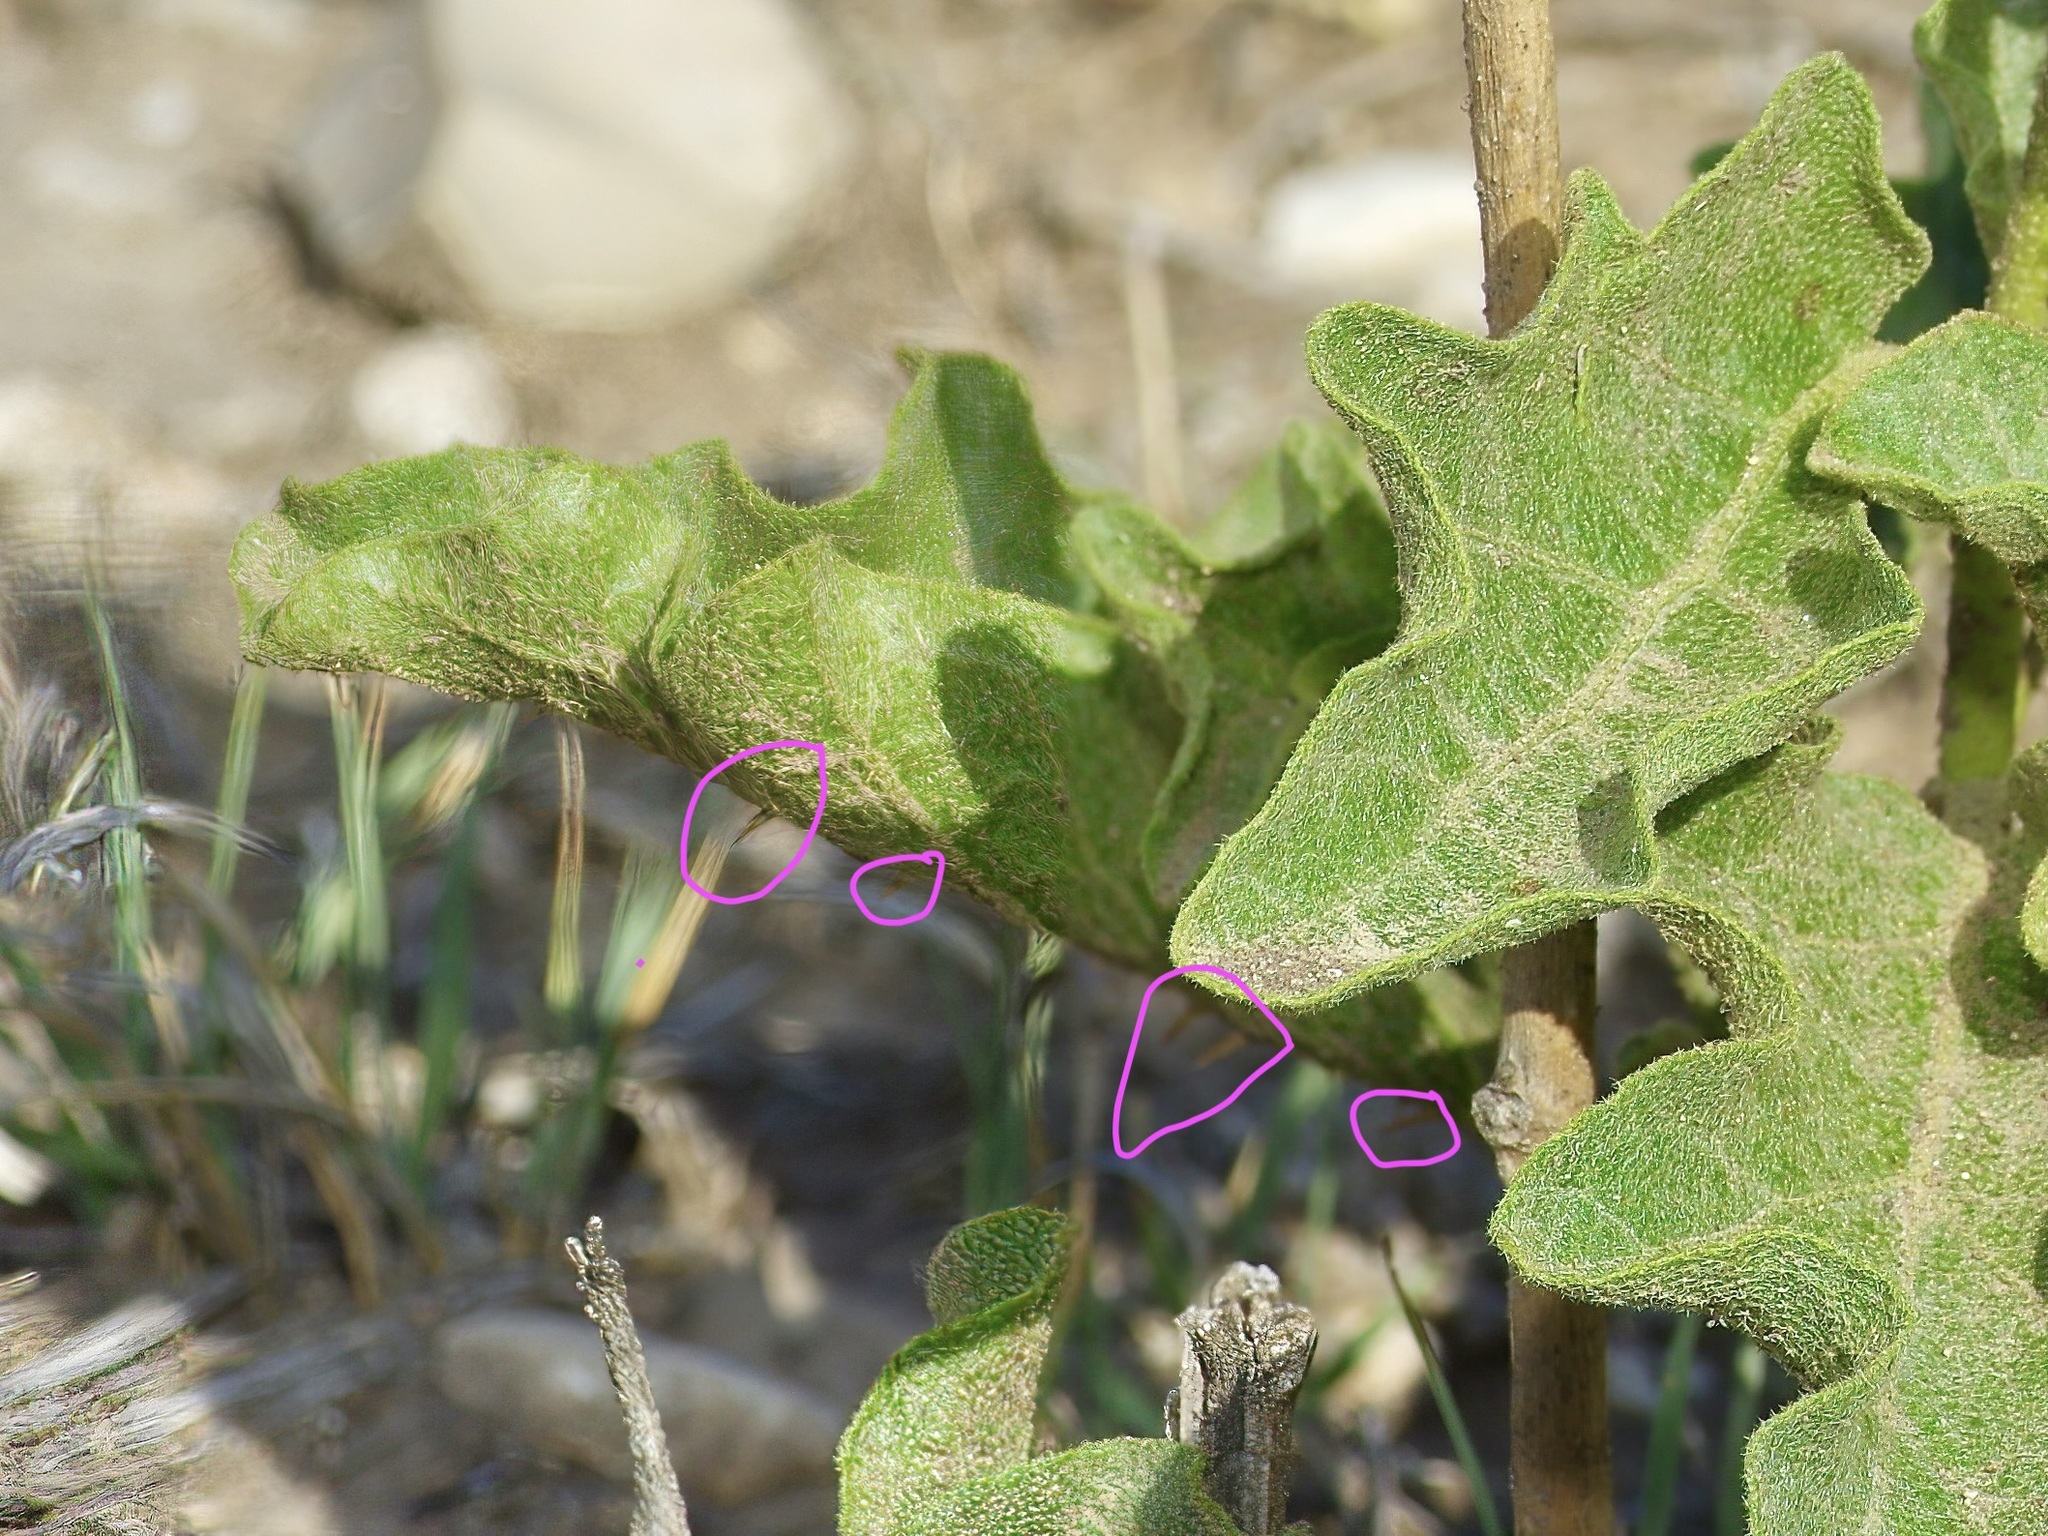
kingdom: Plantae
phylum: Tracheophyta
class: Magnoliopsida
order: Solanales
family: Solanaceae
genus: Solanum
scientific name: Solanum dimidiatum
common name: Carolina horse-nettle
